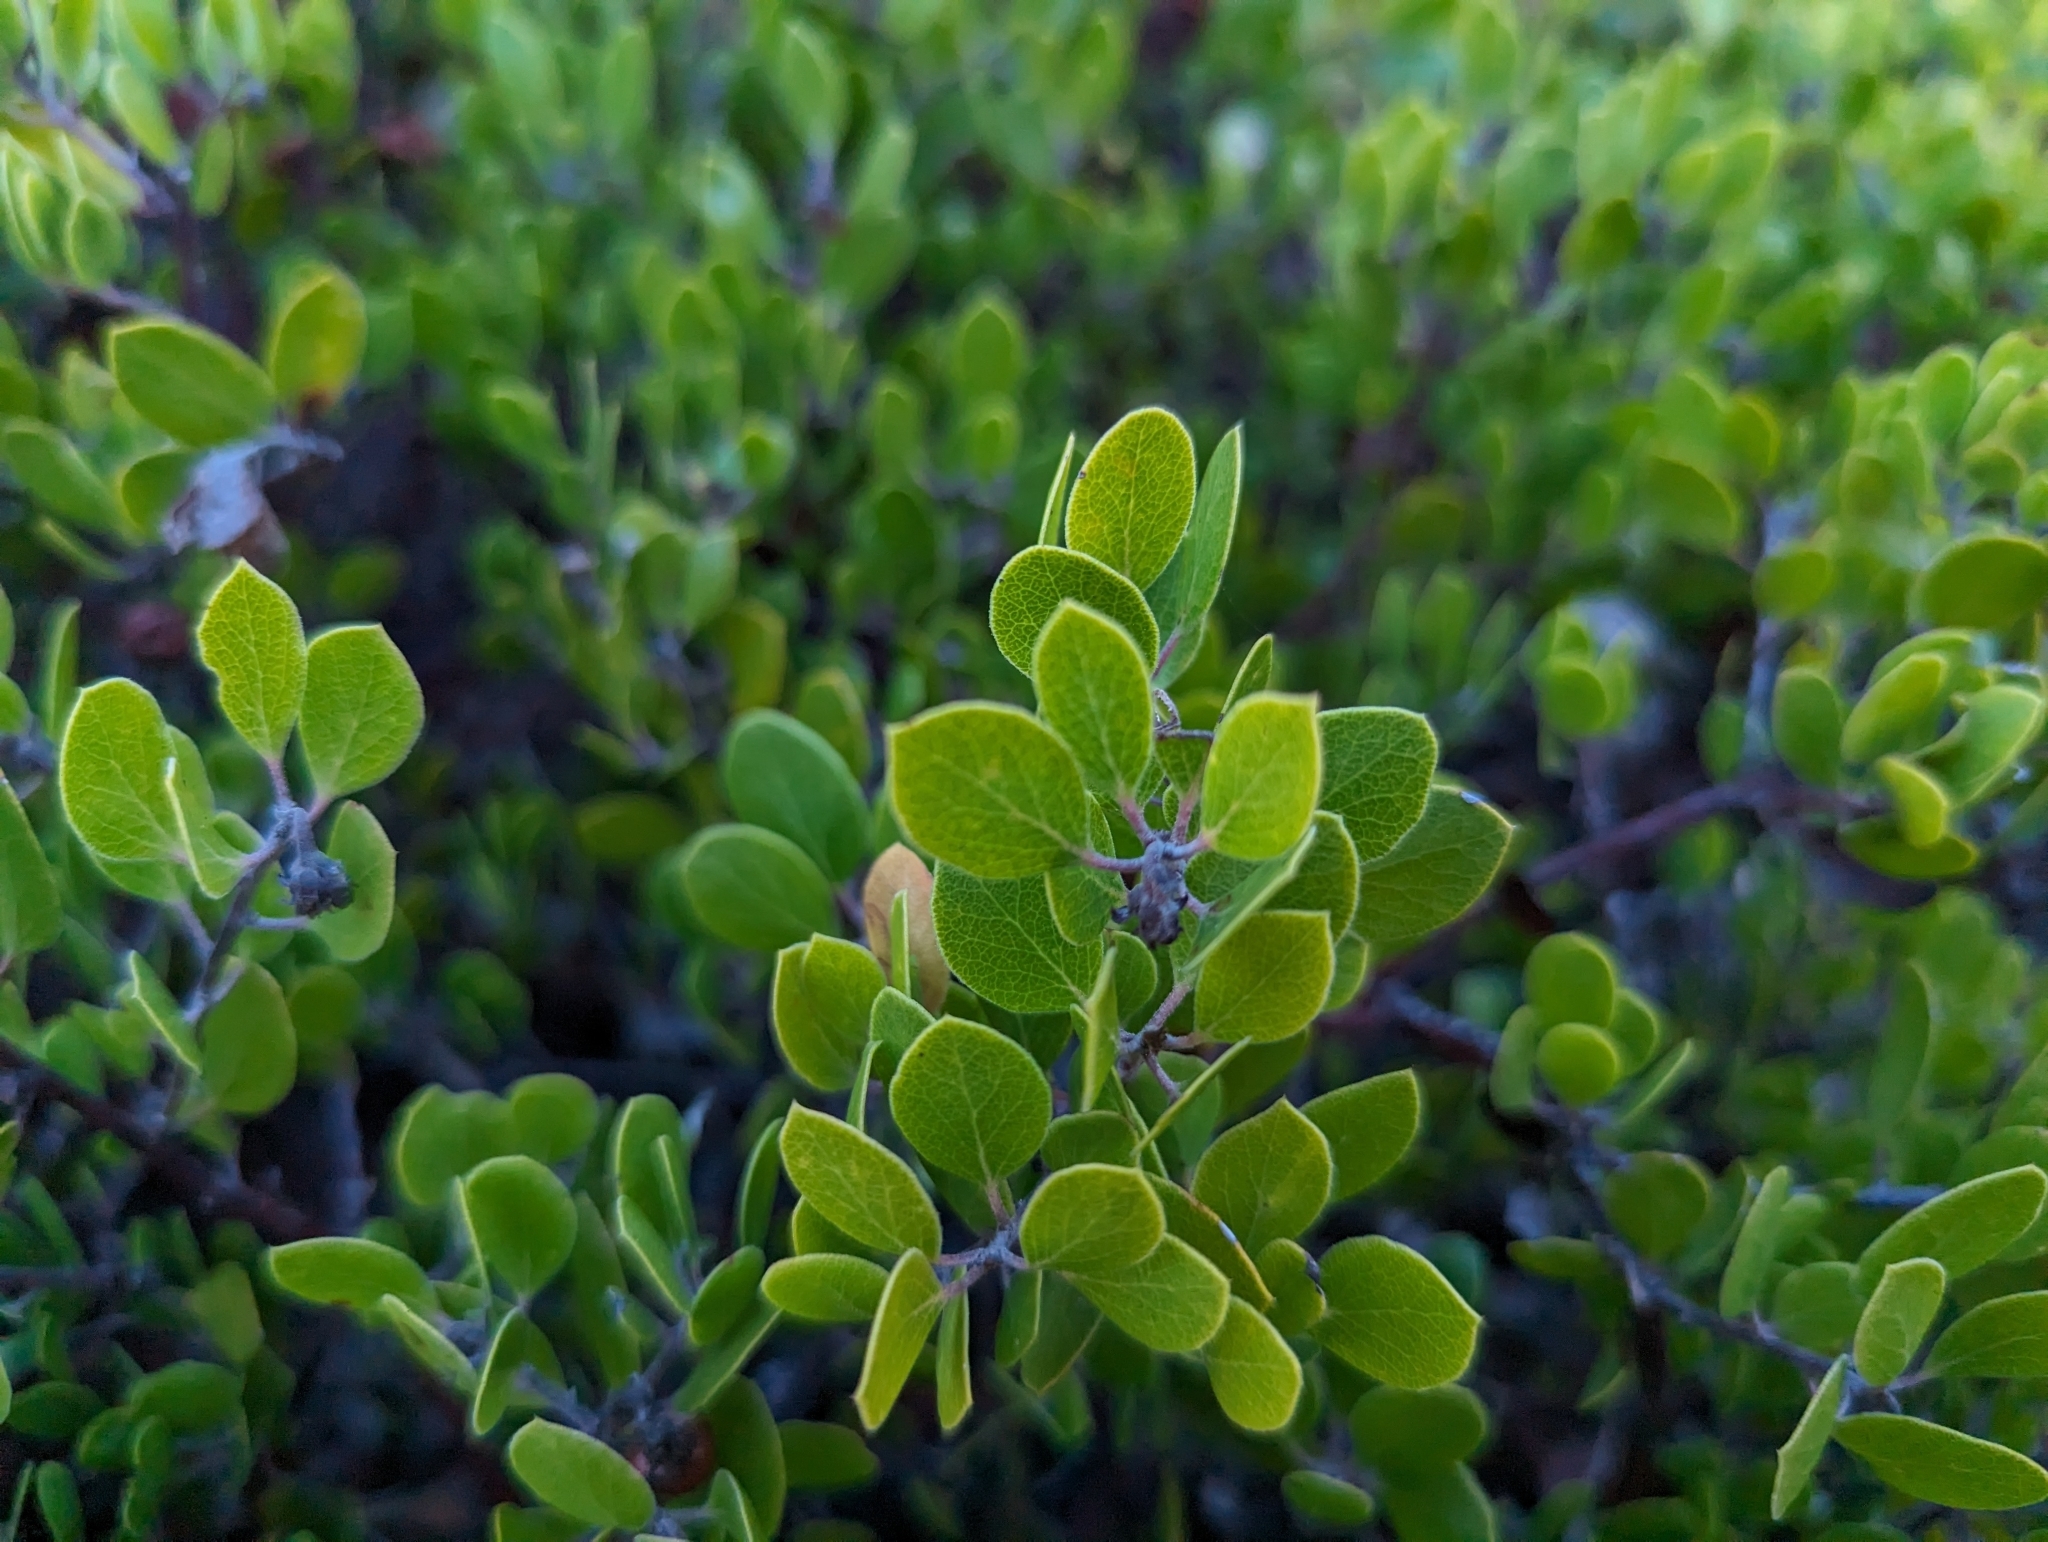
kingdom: Plantae
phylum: Tracheophyta
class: Magnoliopsida
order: Ericales
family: Ericaceae
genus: Arctostaphylos
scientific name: Arctostaphylos hookeri
